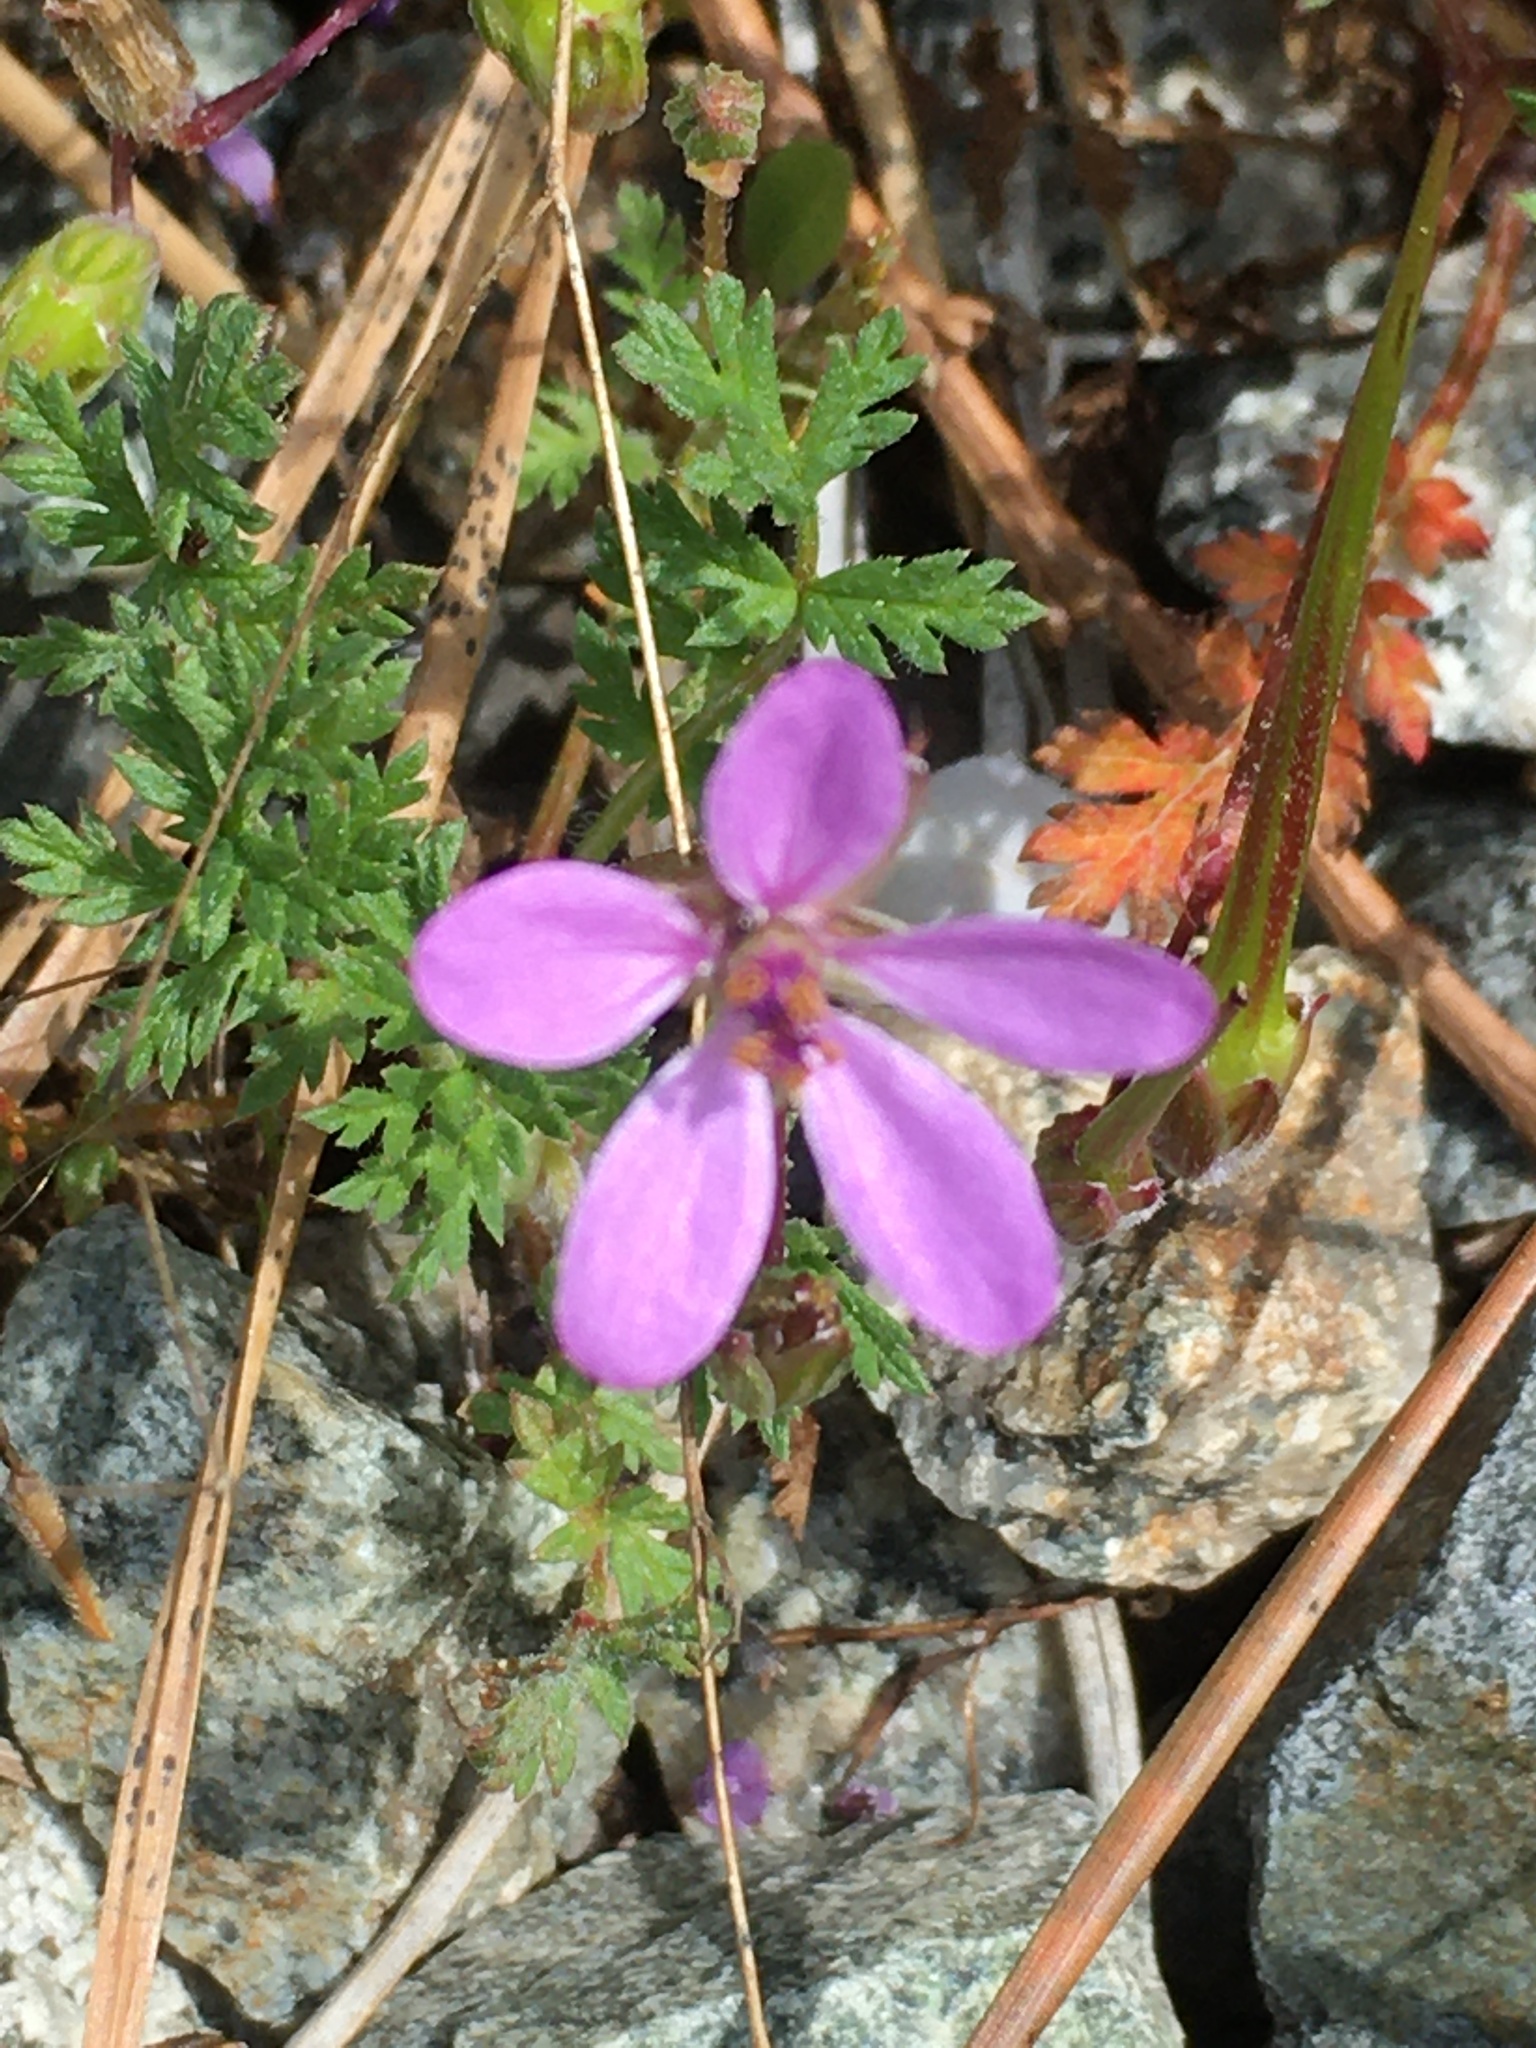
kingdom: Plantae
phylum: Tracheophyta
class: Magnoliopsida
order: Geraniales
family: Geraniaceae
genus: Erodium
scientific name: Erodium cicutarium
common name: Common stork's-bill
